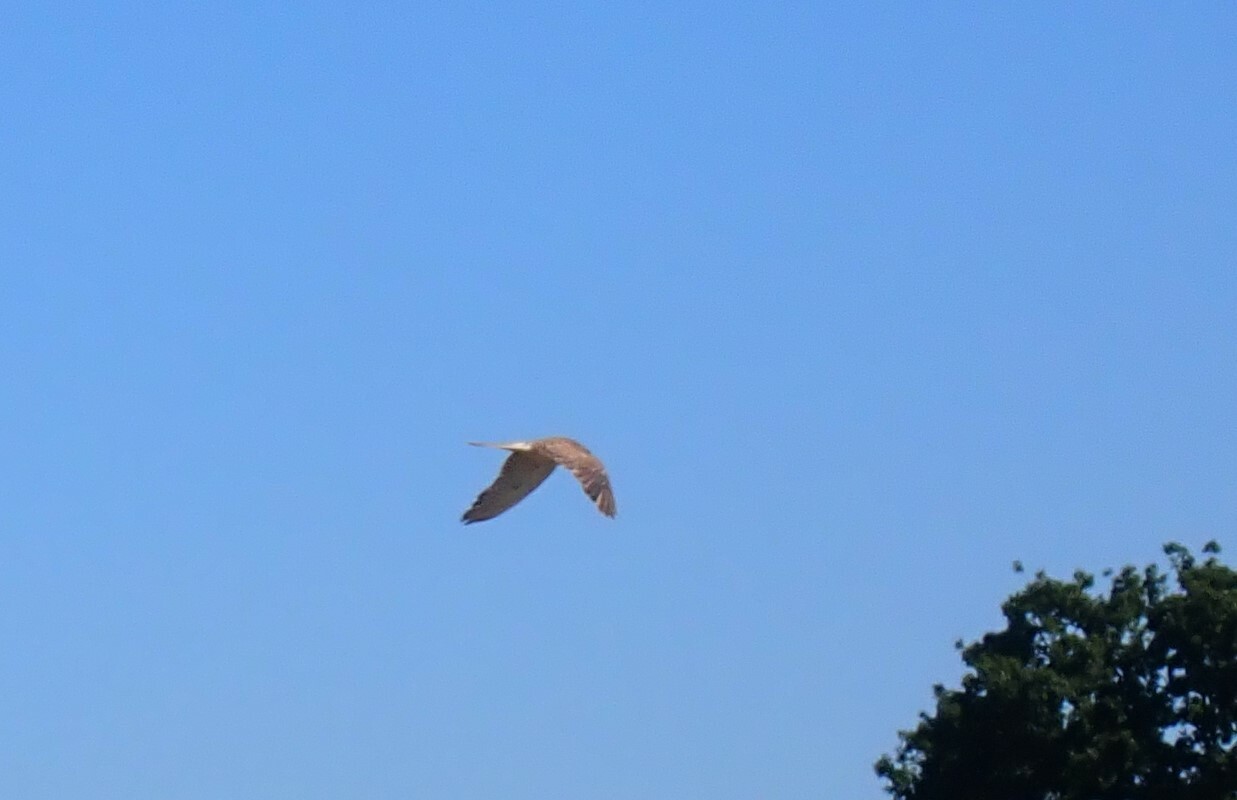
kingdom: Animalia
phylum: Chordata
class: Aves
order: Falconiformes
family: Falconidae
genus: Falco
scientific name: Falco tinnunculus
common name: Common kestrel
